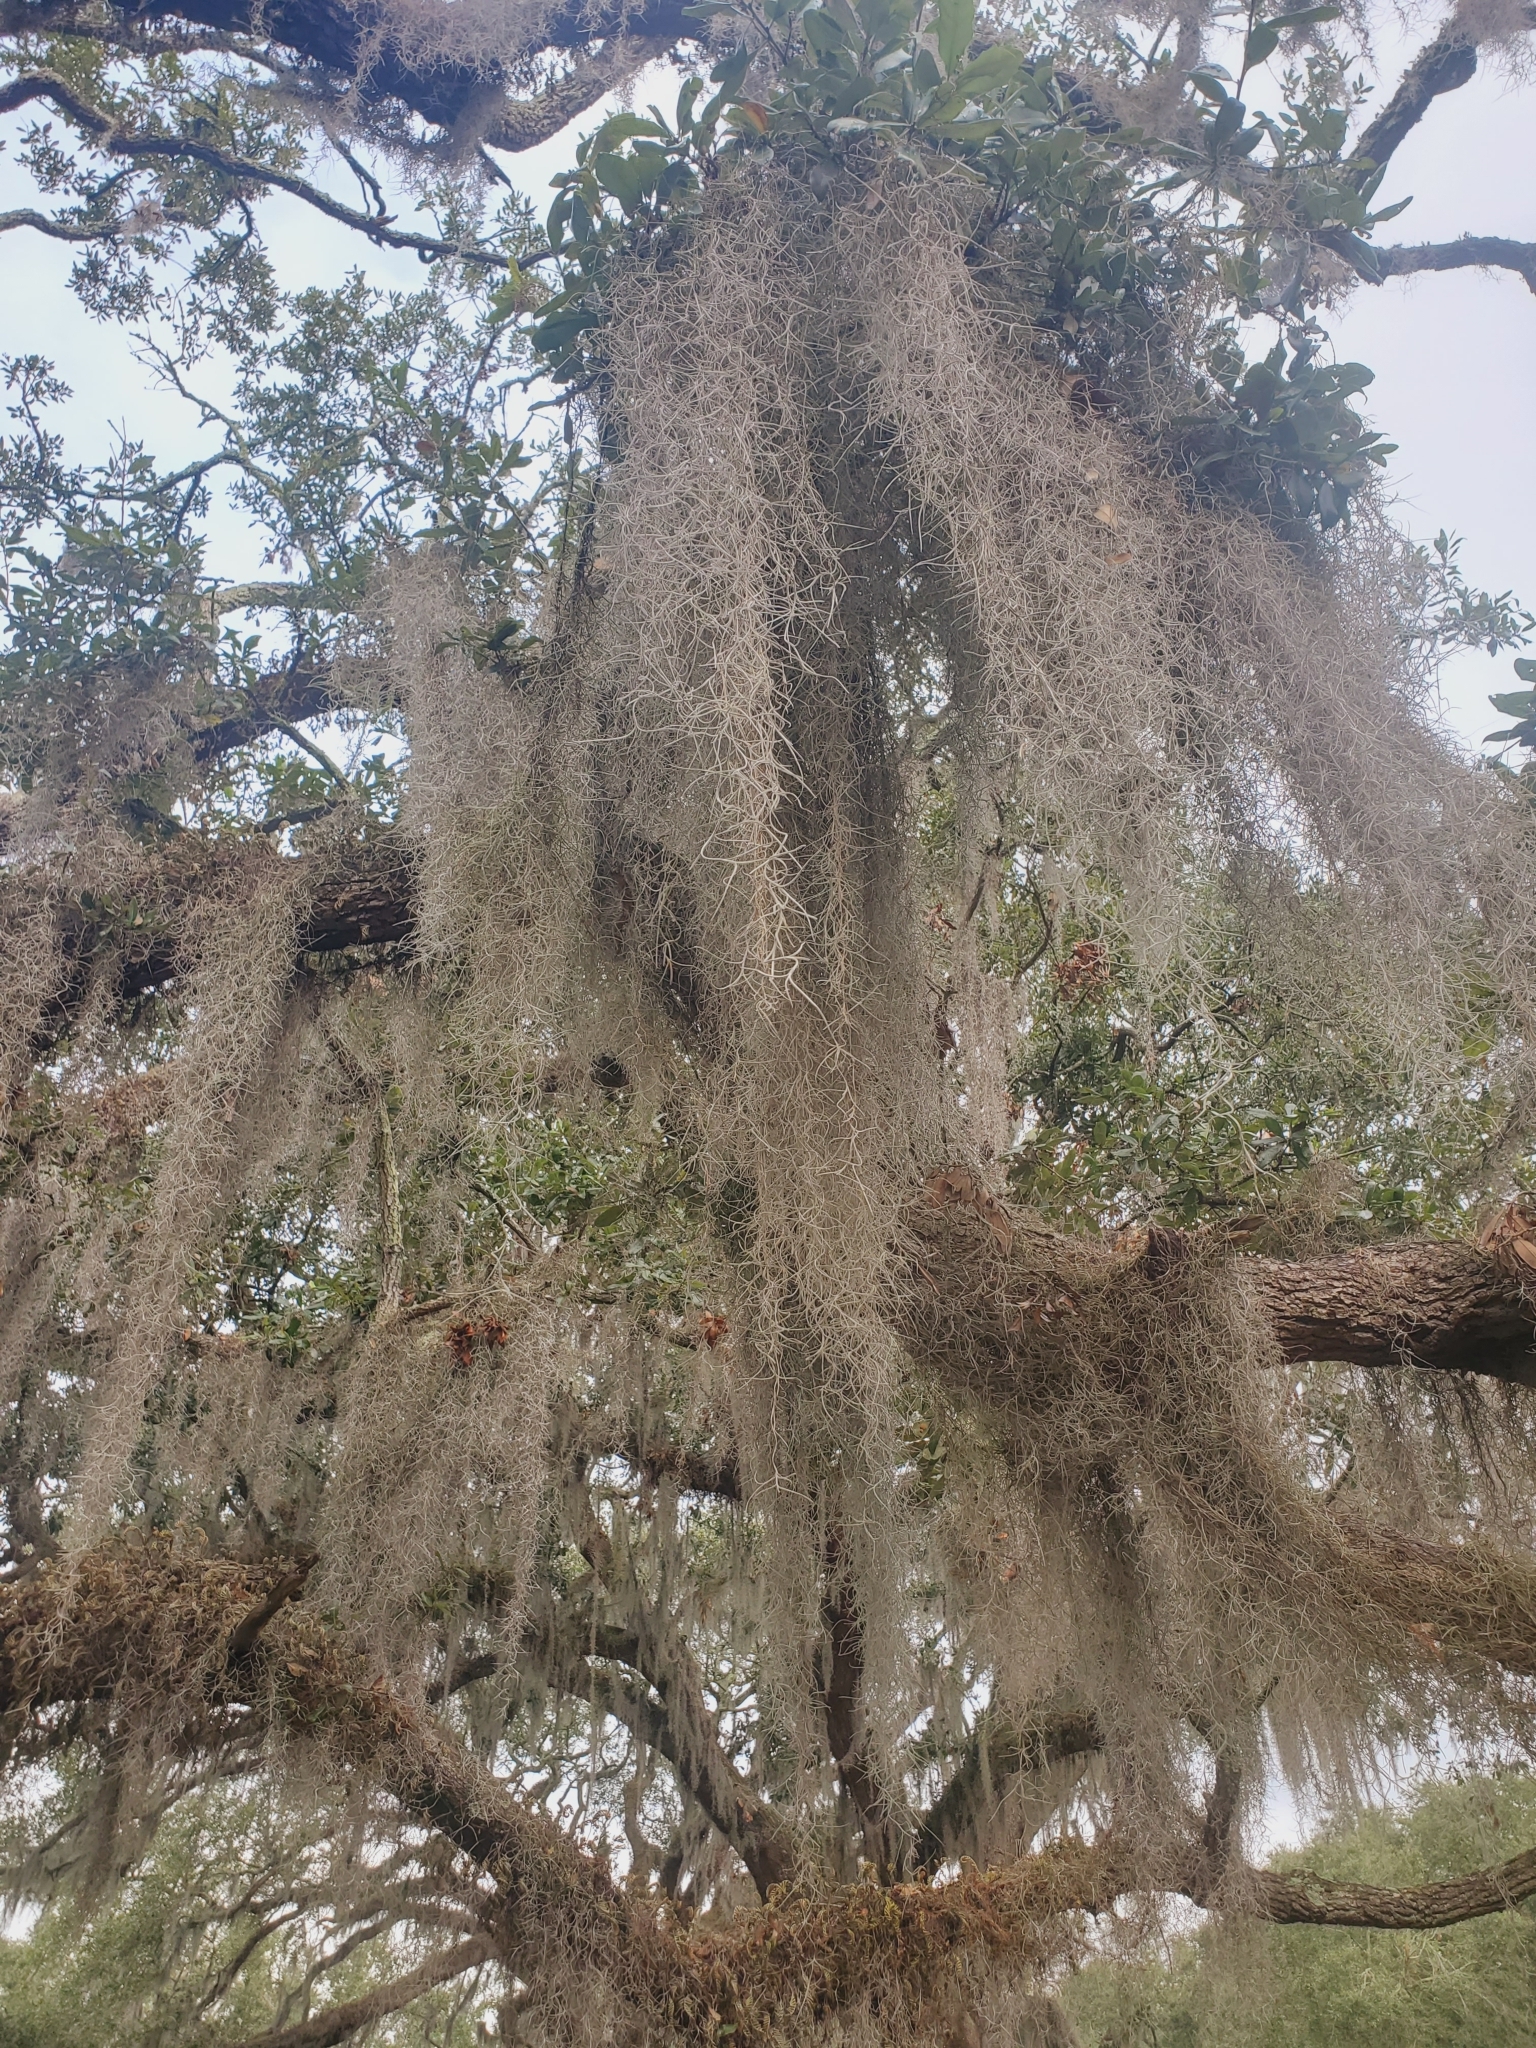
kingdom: Plantae
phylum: Tracheophyta
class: Liliopsida
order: Poales
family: Bromeliaceae
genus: Tillandsia
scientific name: Tillandsia usneoides
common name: Spanish moss
